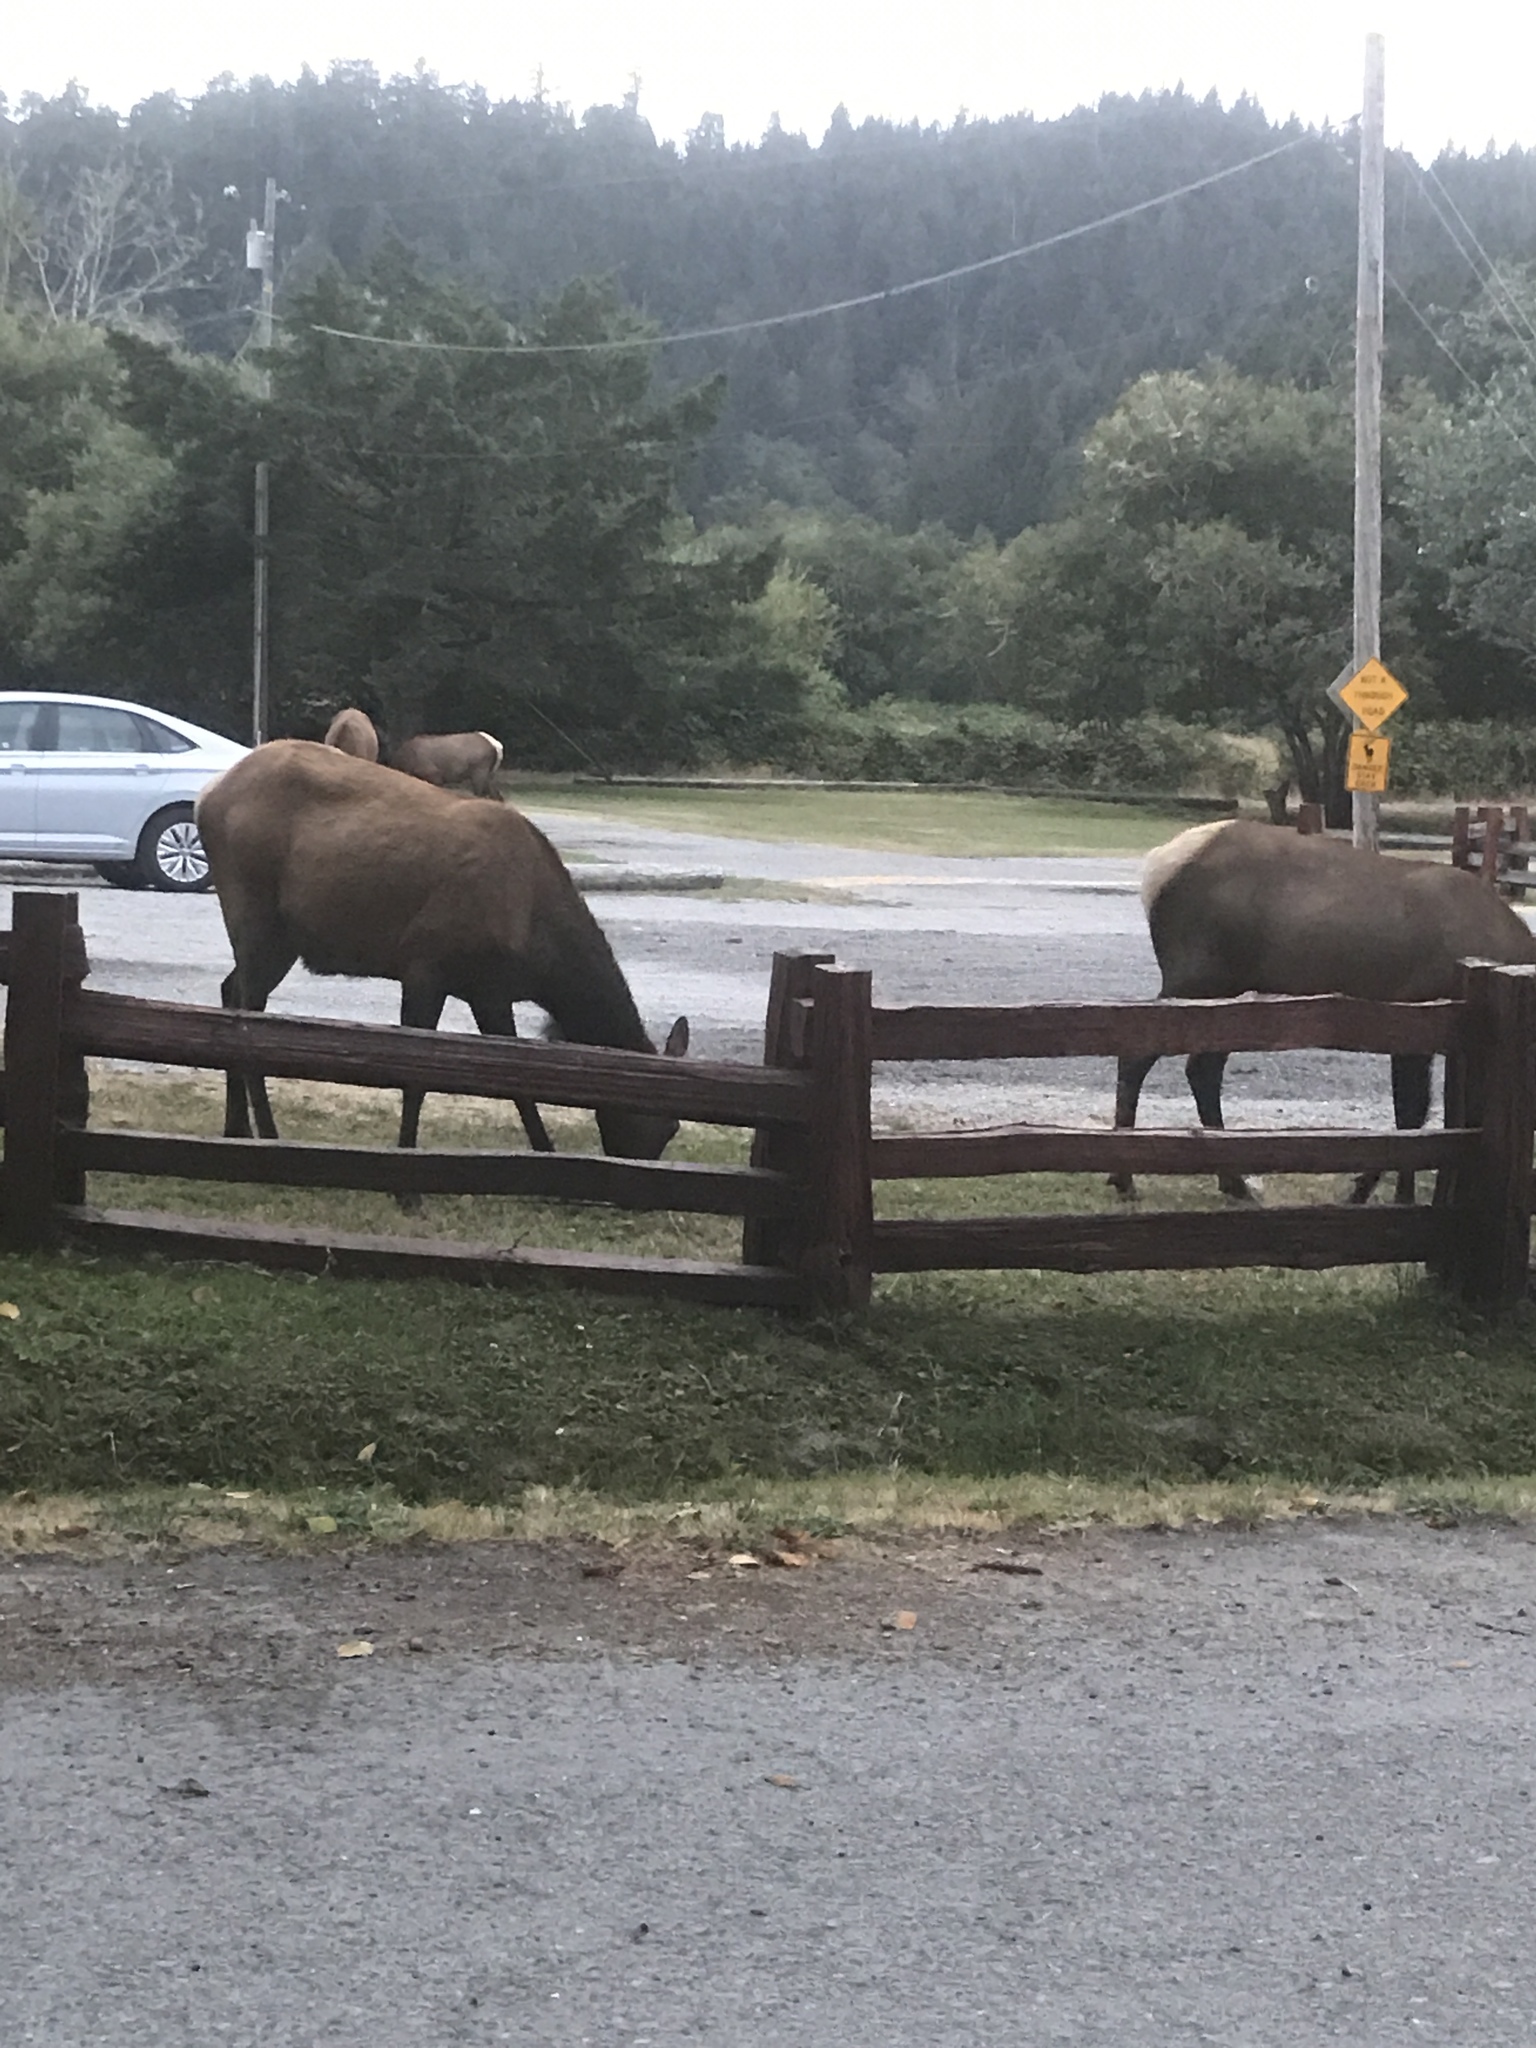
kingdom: Animalia
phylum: Chordata
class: Mammalia
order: Artiodactyla
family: Cervidae
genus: Cervus
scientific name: Cervus elaphus
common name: Red deer
